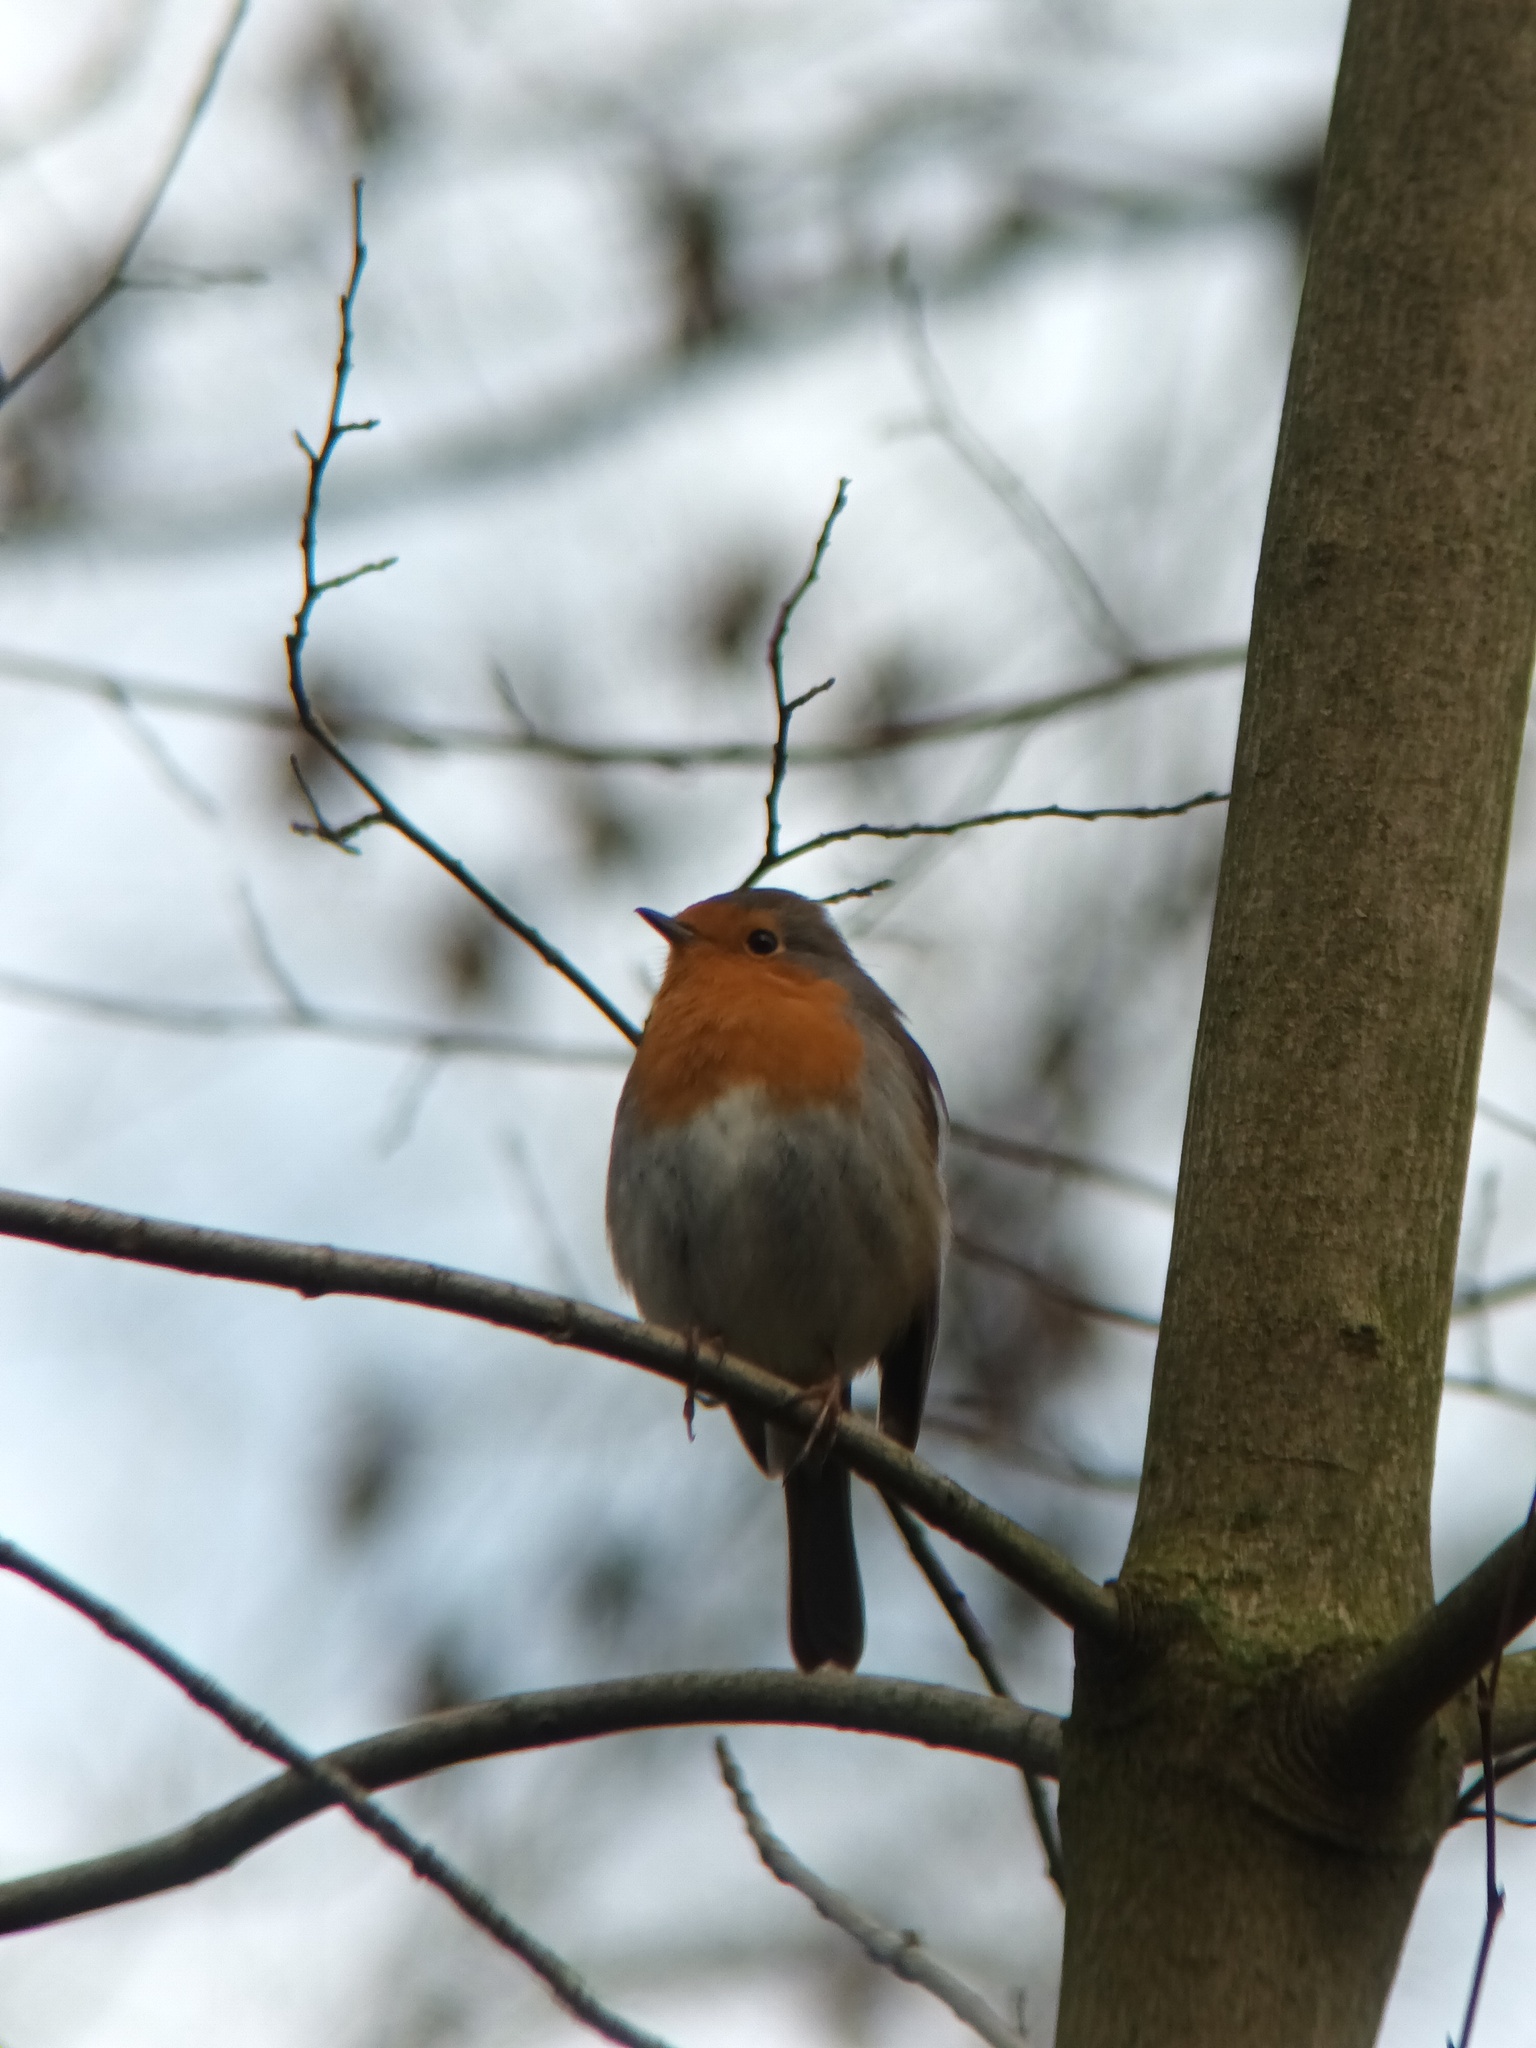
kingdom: Animalia
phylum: Chordata
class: Aves
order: Passeriformes
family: Muscicapidae
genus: Erithacus
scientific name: Erithacus rubecula
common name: European robin
